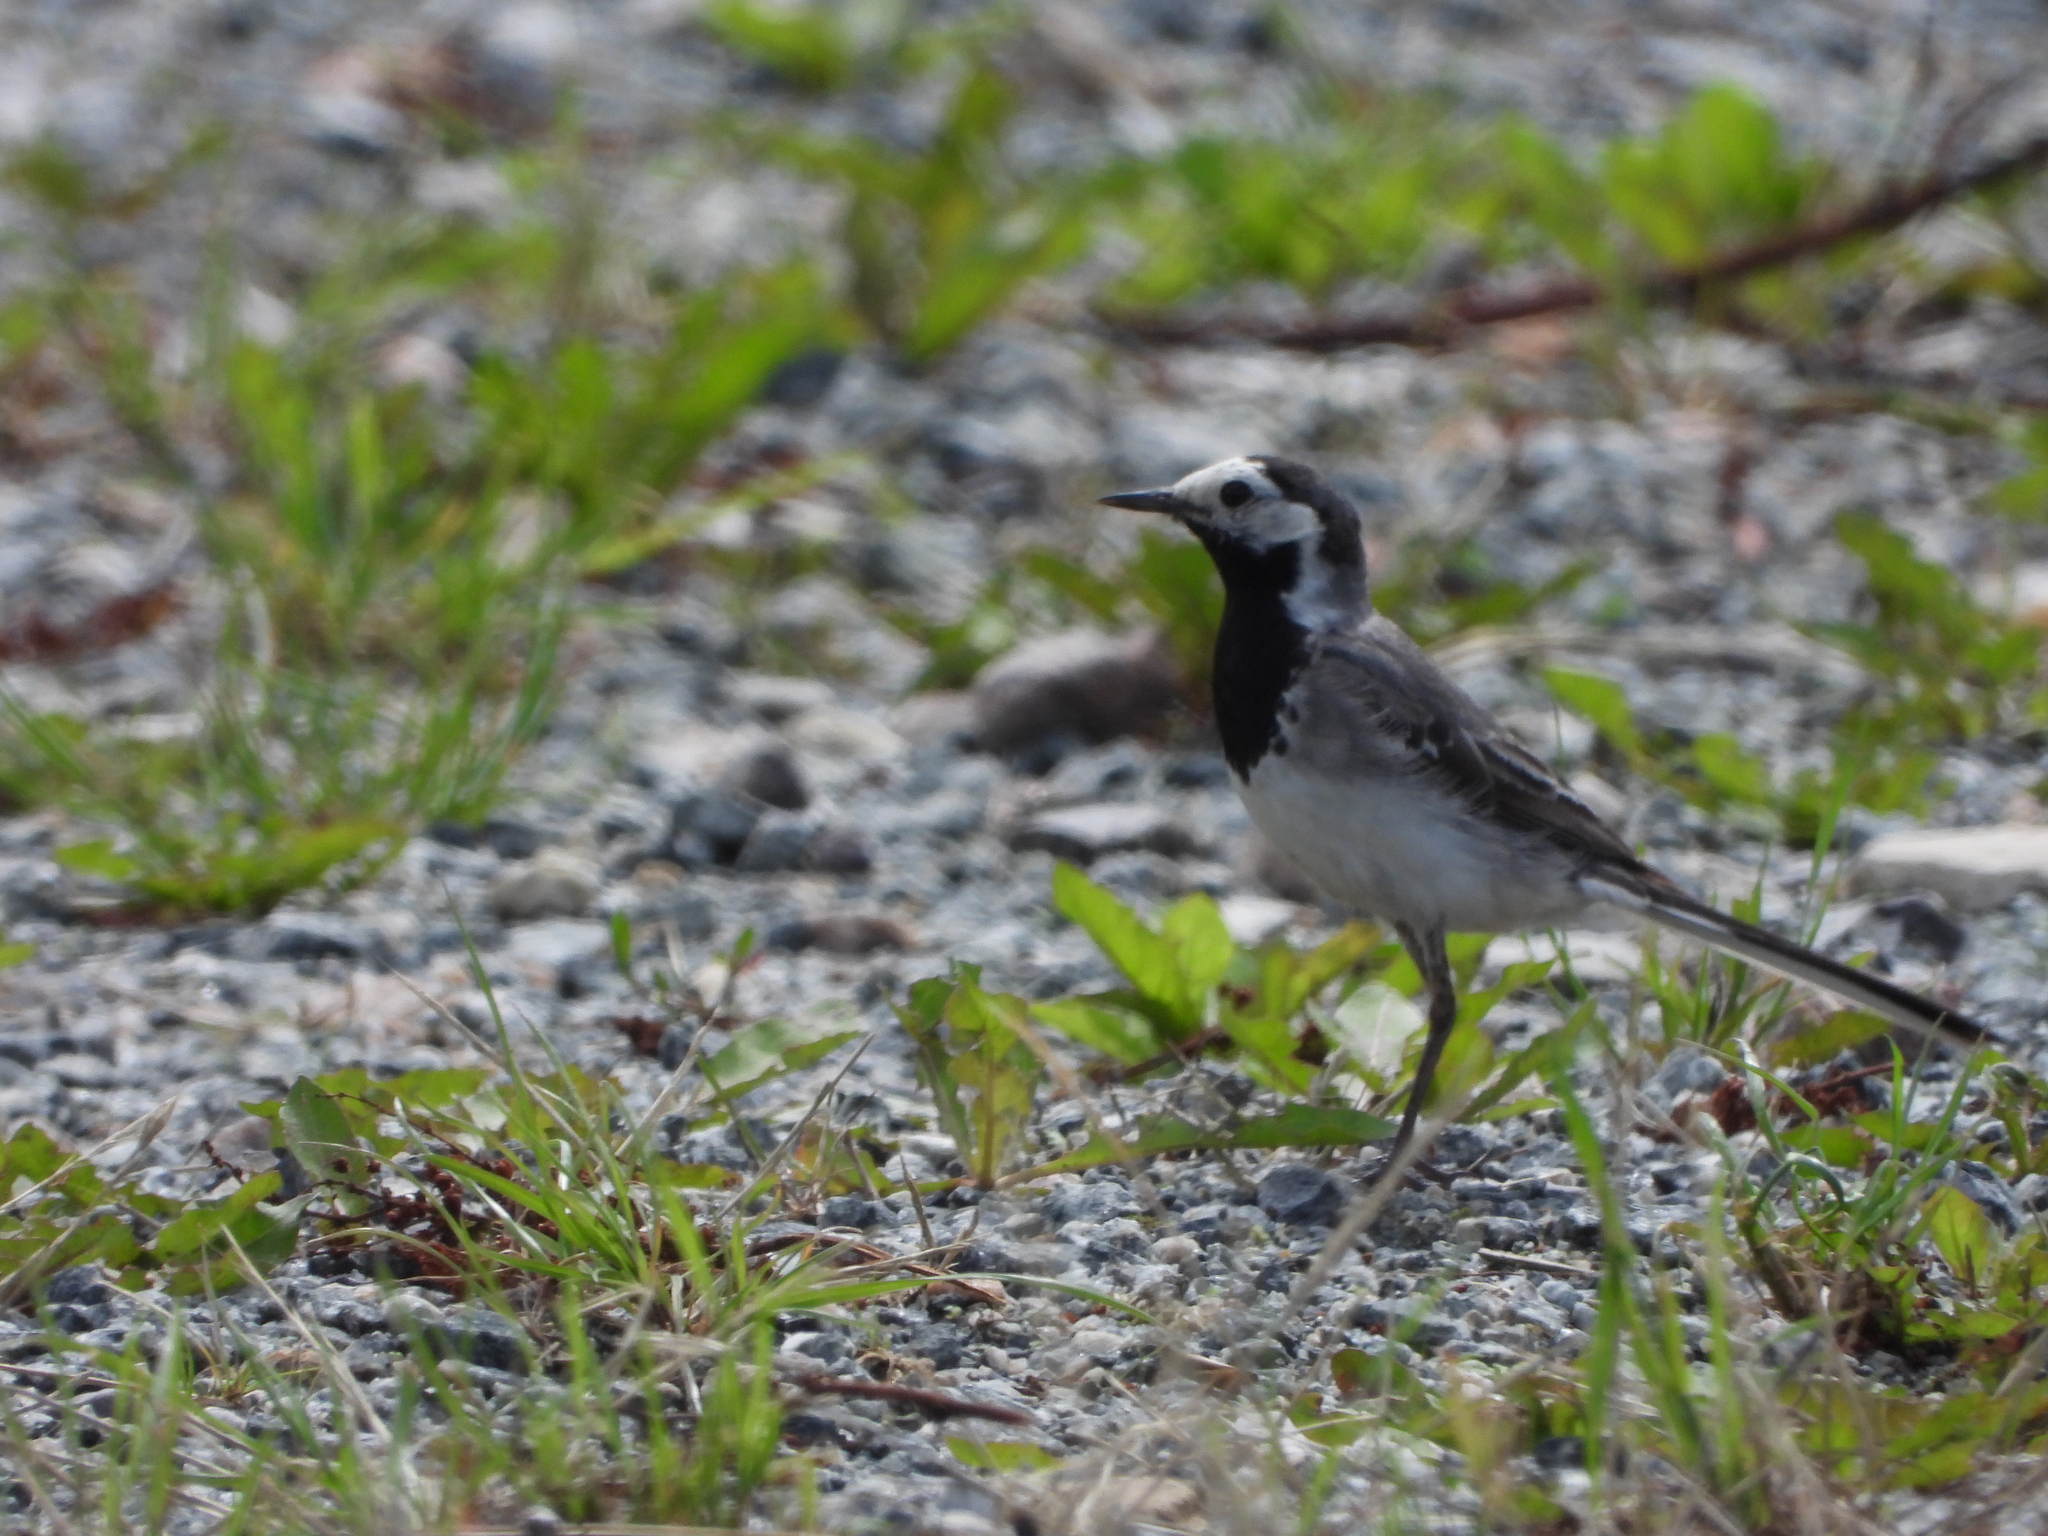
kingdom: Animalia
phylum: Chordata
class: Aves
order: Passeriformes
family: Motacillidae
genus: Motacilla
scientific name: Motacilla alba
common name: White wagtail
